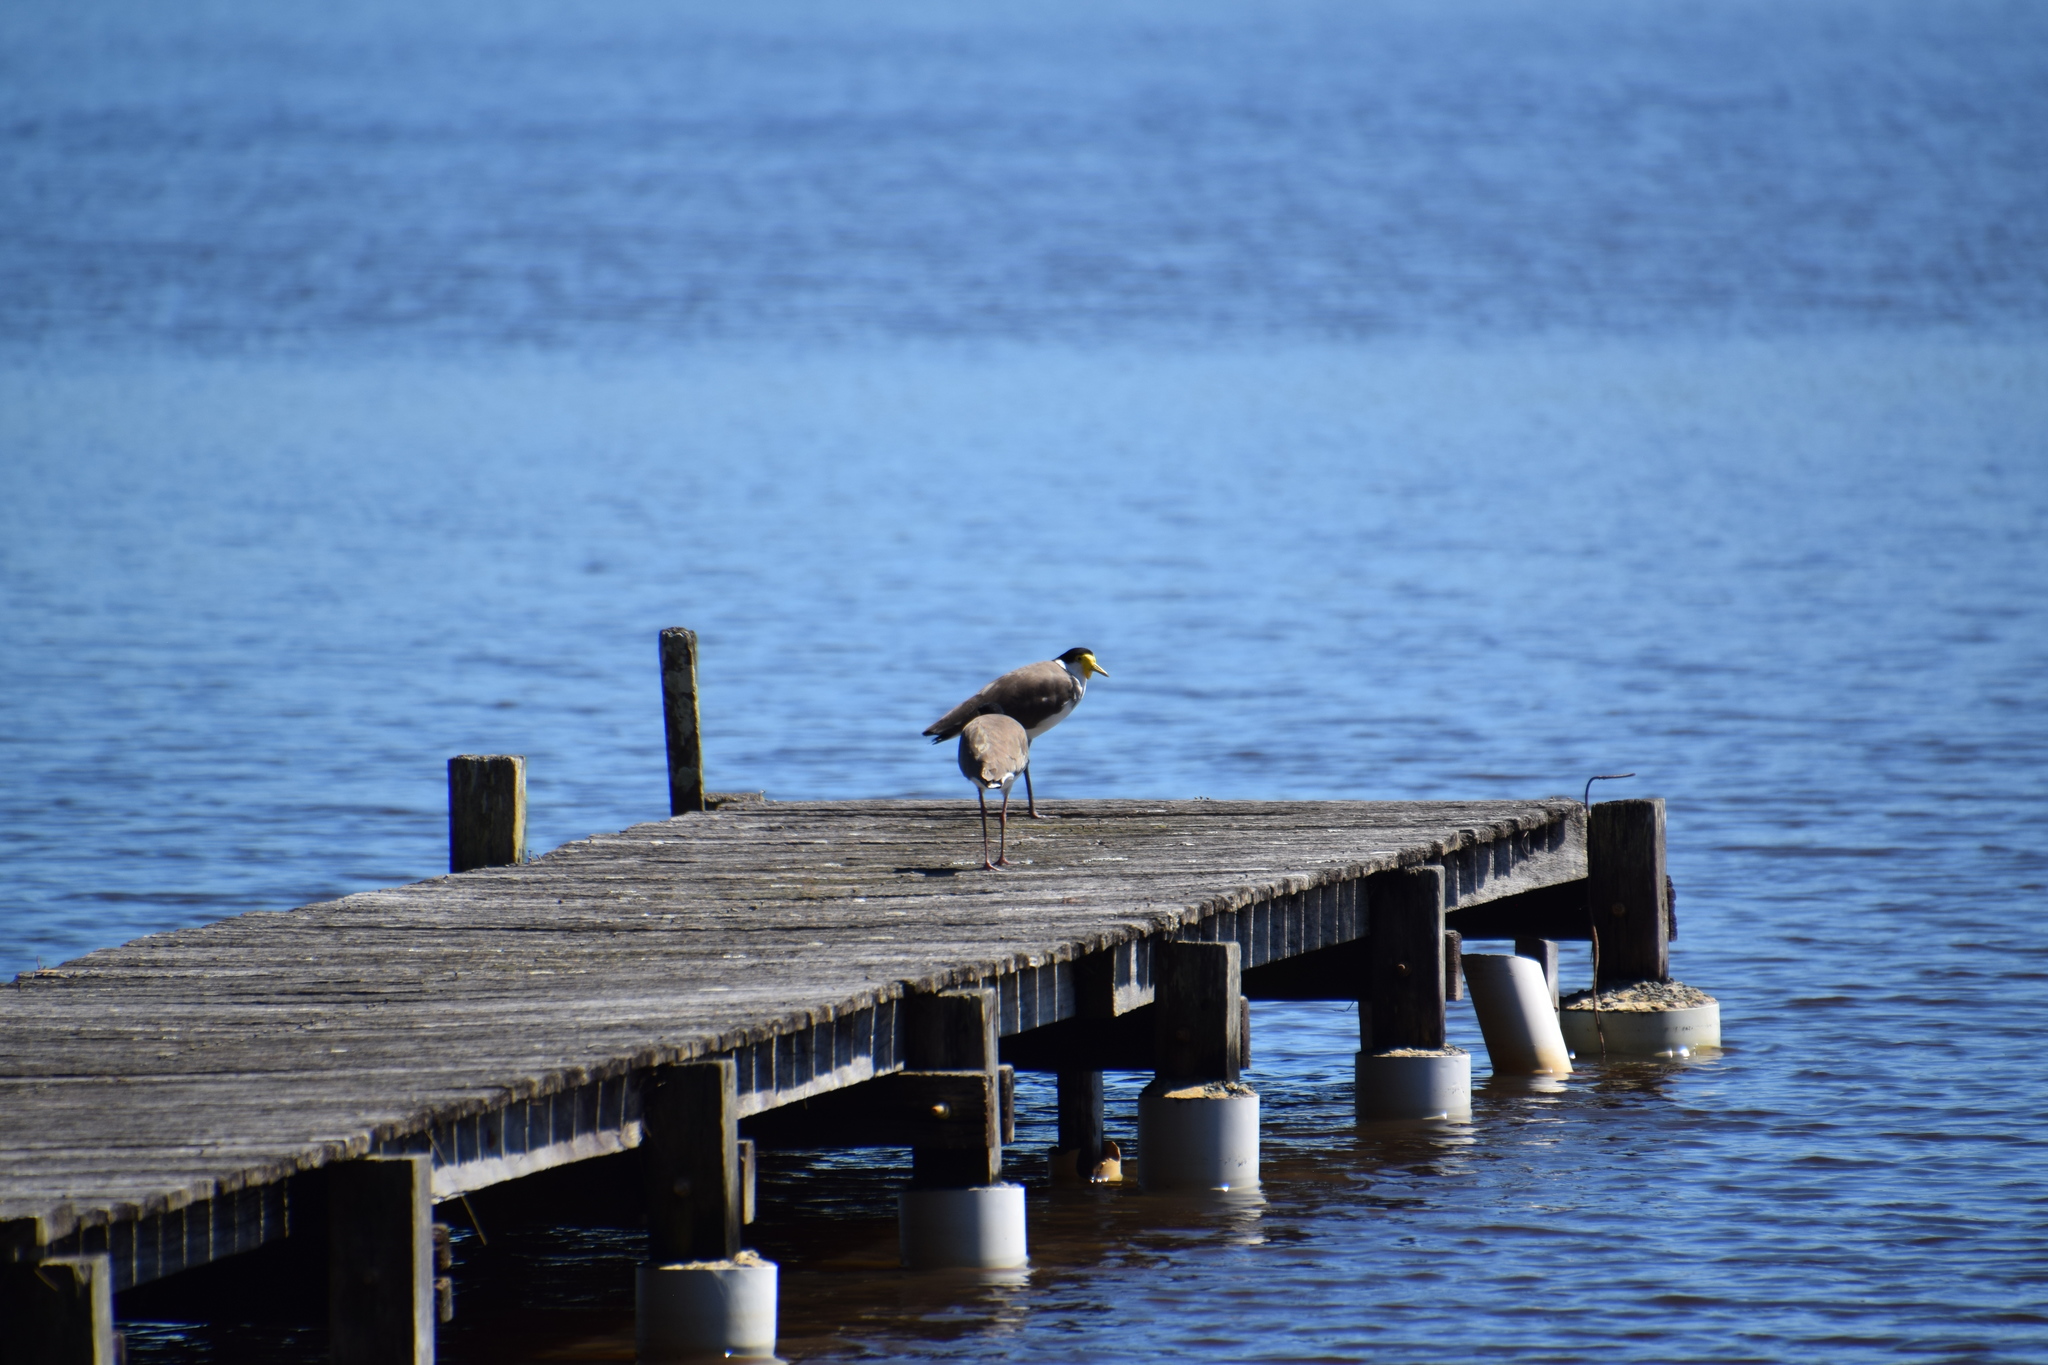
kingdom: Animalia
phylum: Chordata
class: Aves
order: Charadriiformes
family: Charadriidae
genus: Vanellus
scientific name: Vanellus miles
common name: Masked lapwing
